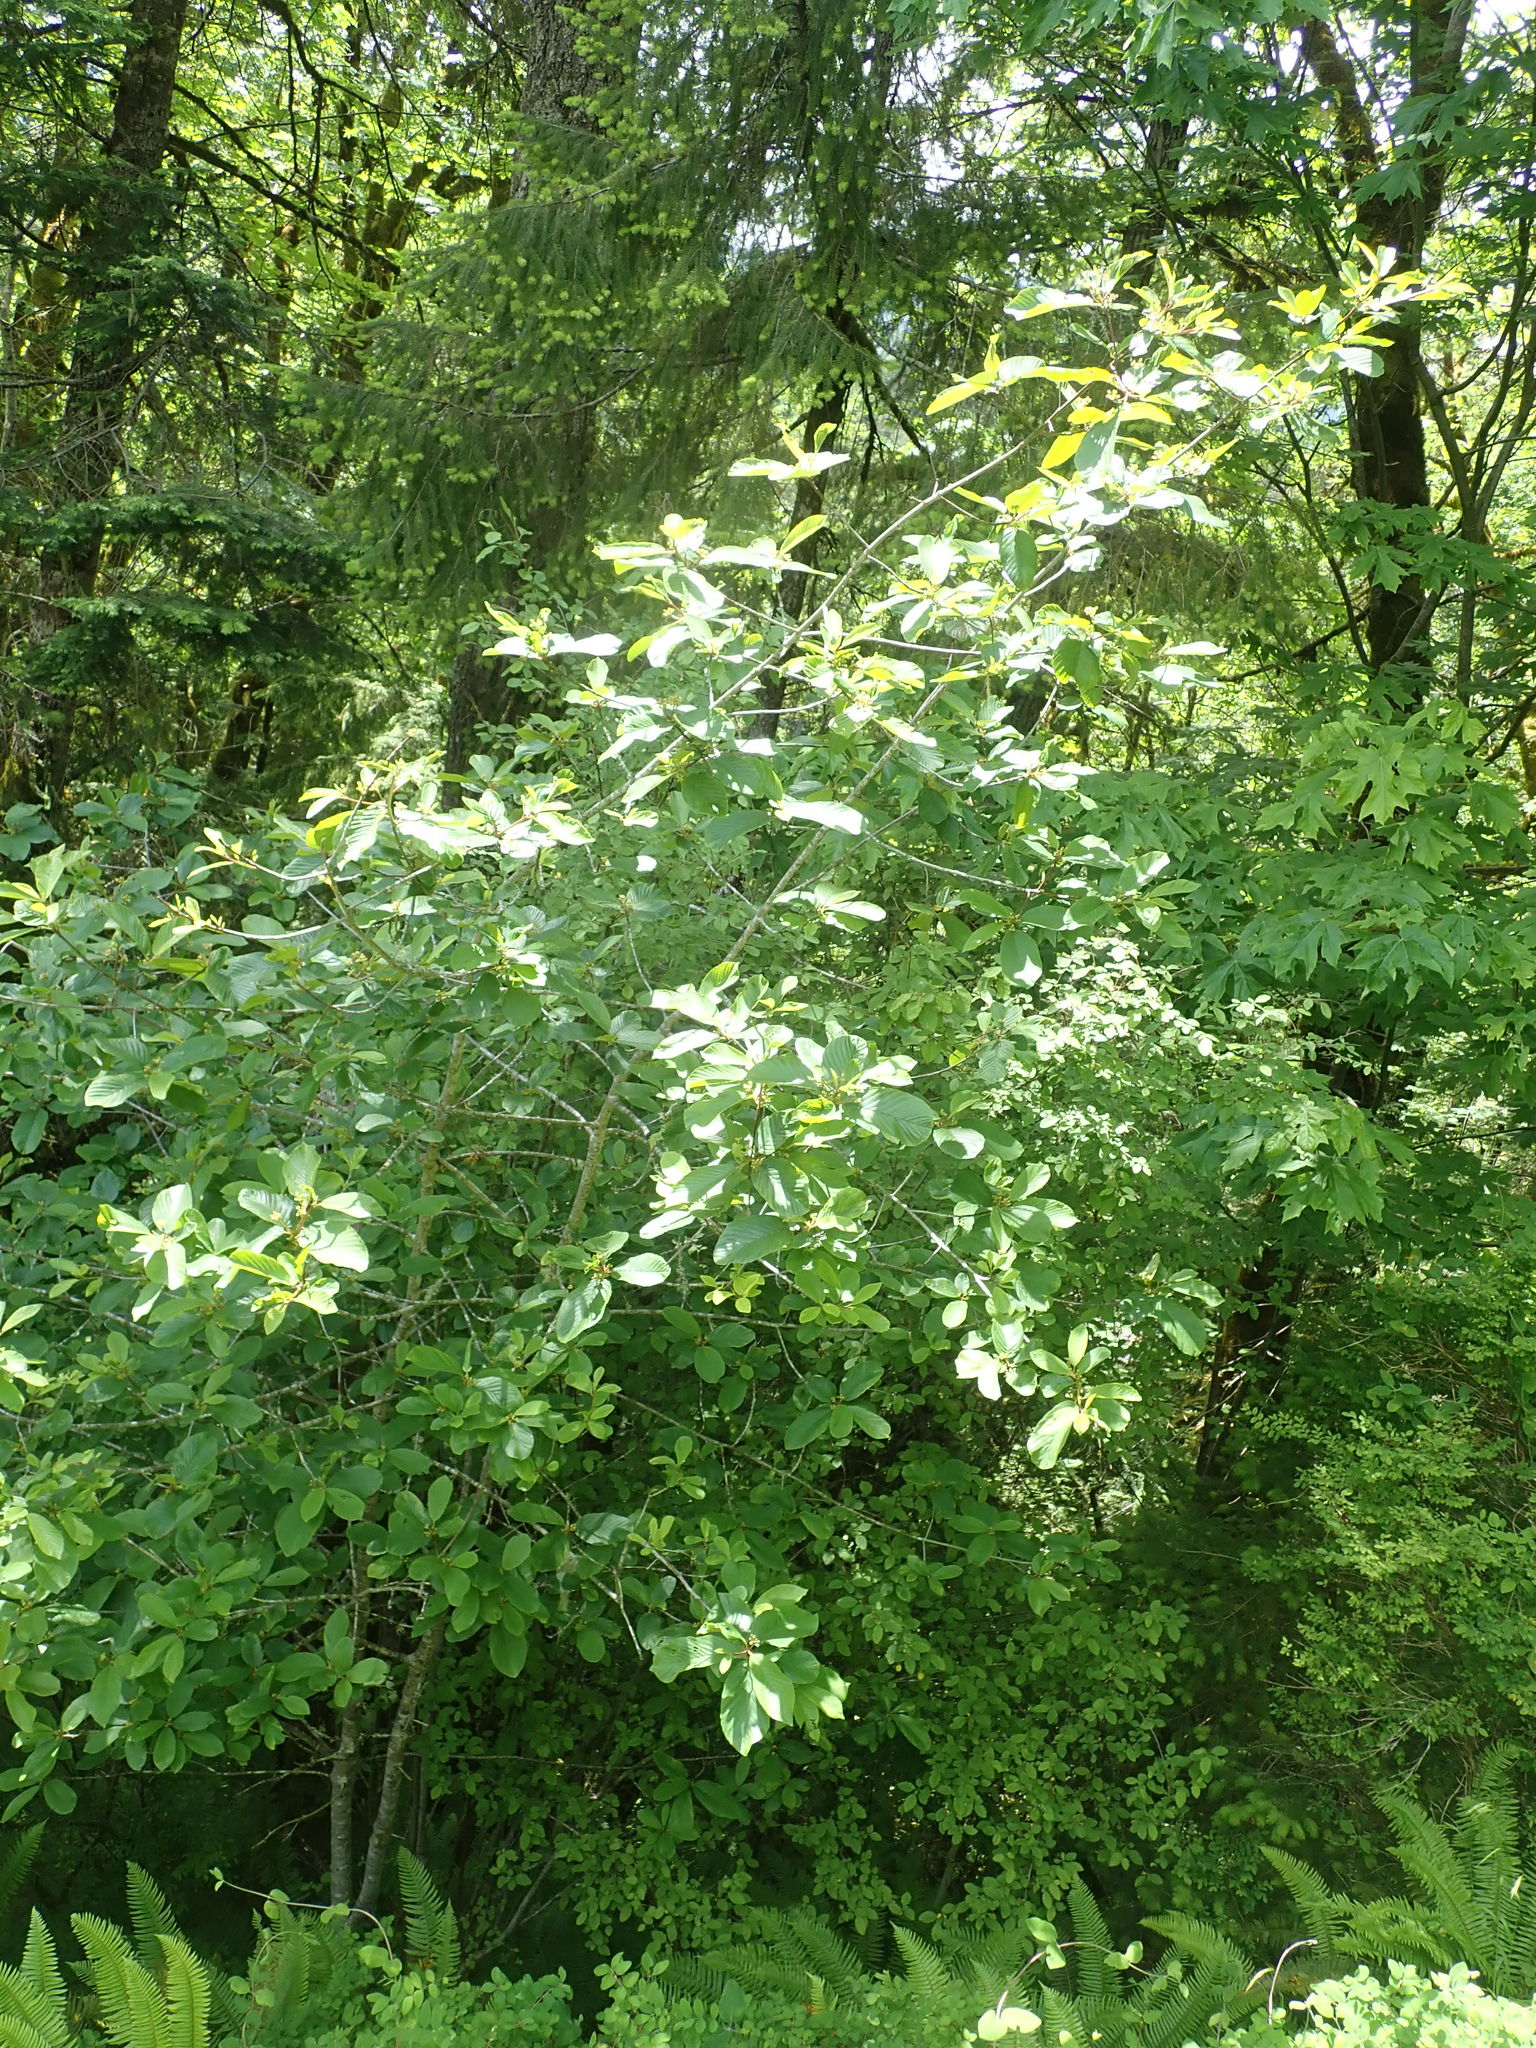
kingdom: Plantae
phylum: Tracheophyta
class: Magnoliopsida
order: Rosales
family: Rhamnaceae
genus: Frangula
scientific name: Frangula purshiana
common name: Cascara buckthorn
